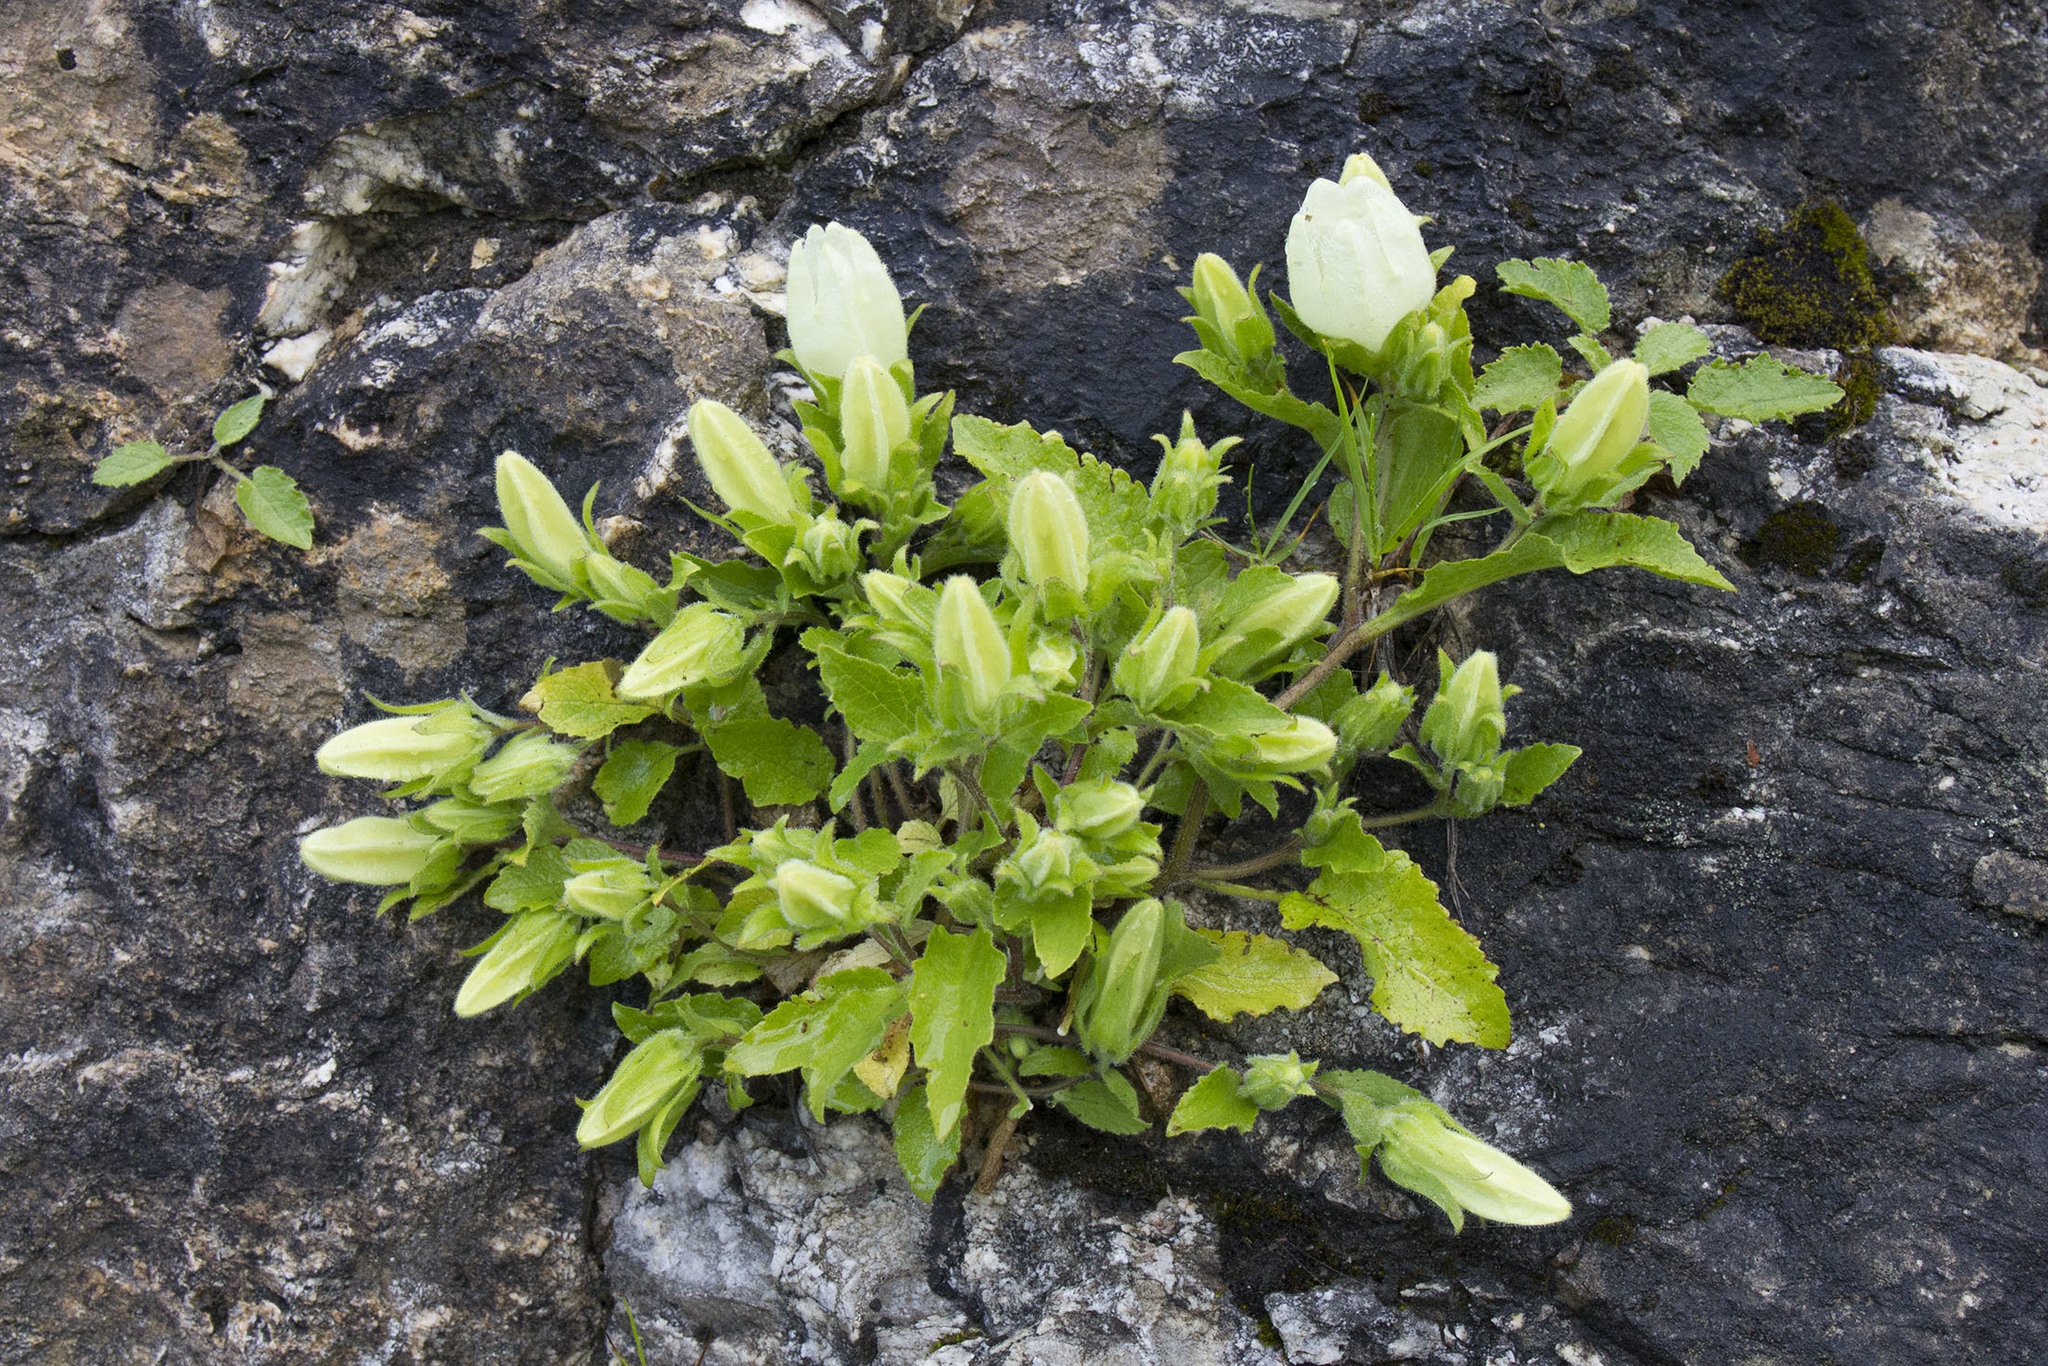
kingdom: Plantae
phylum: Tracheophyta
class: Magnoliopsida
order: Asterales
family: Campanulaceae
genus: Campanula
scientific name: Campanula pendula
